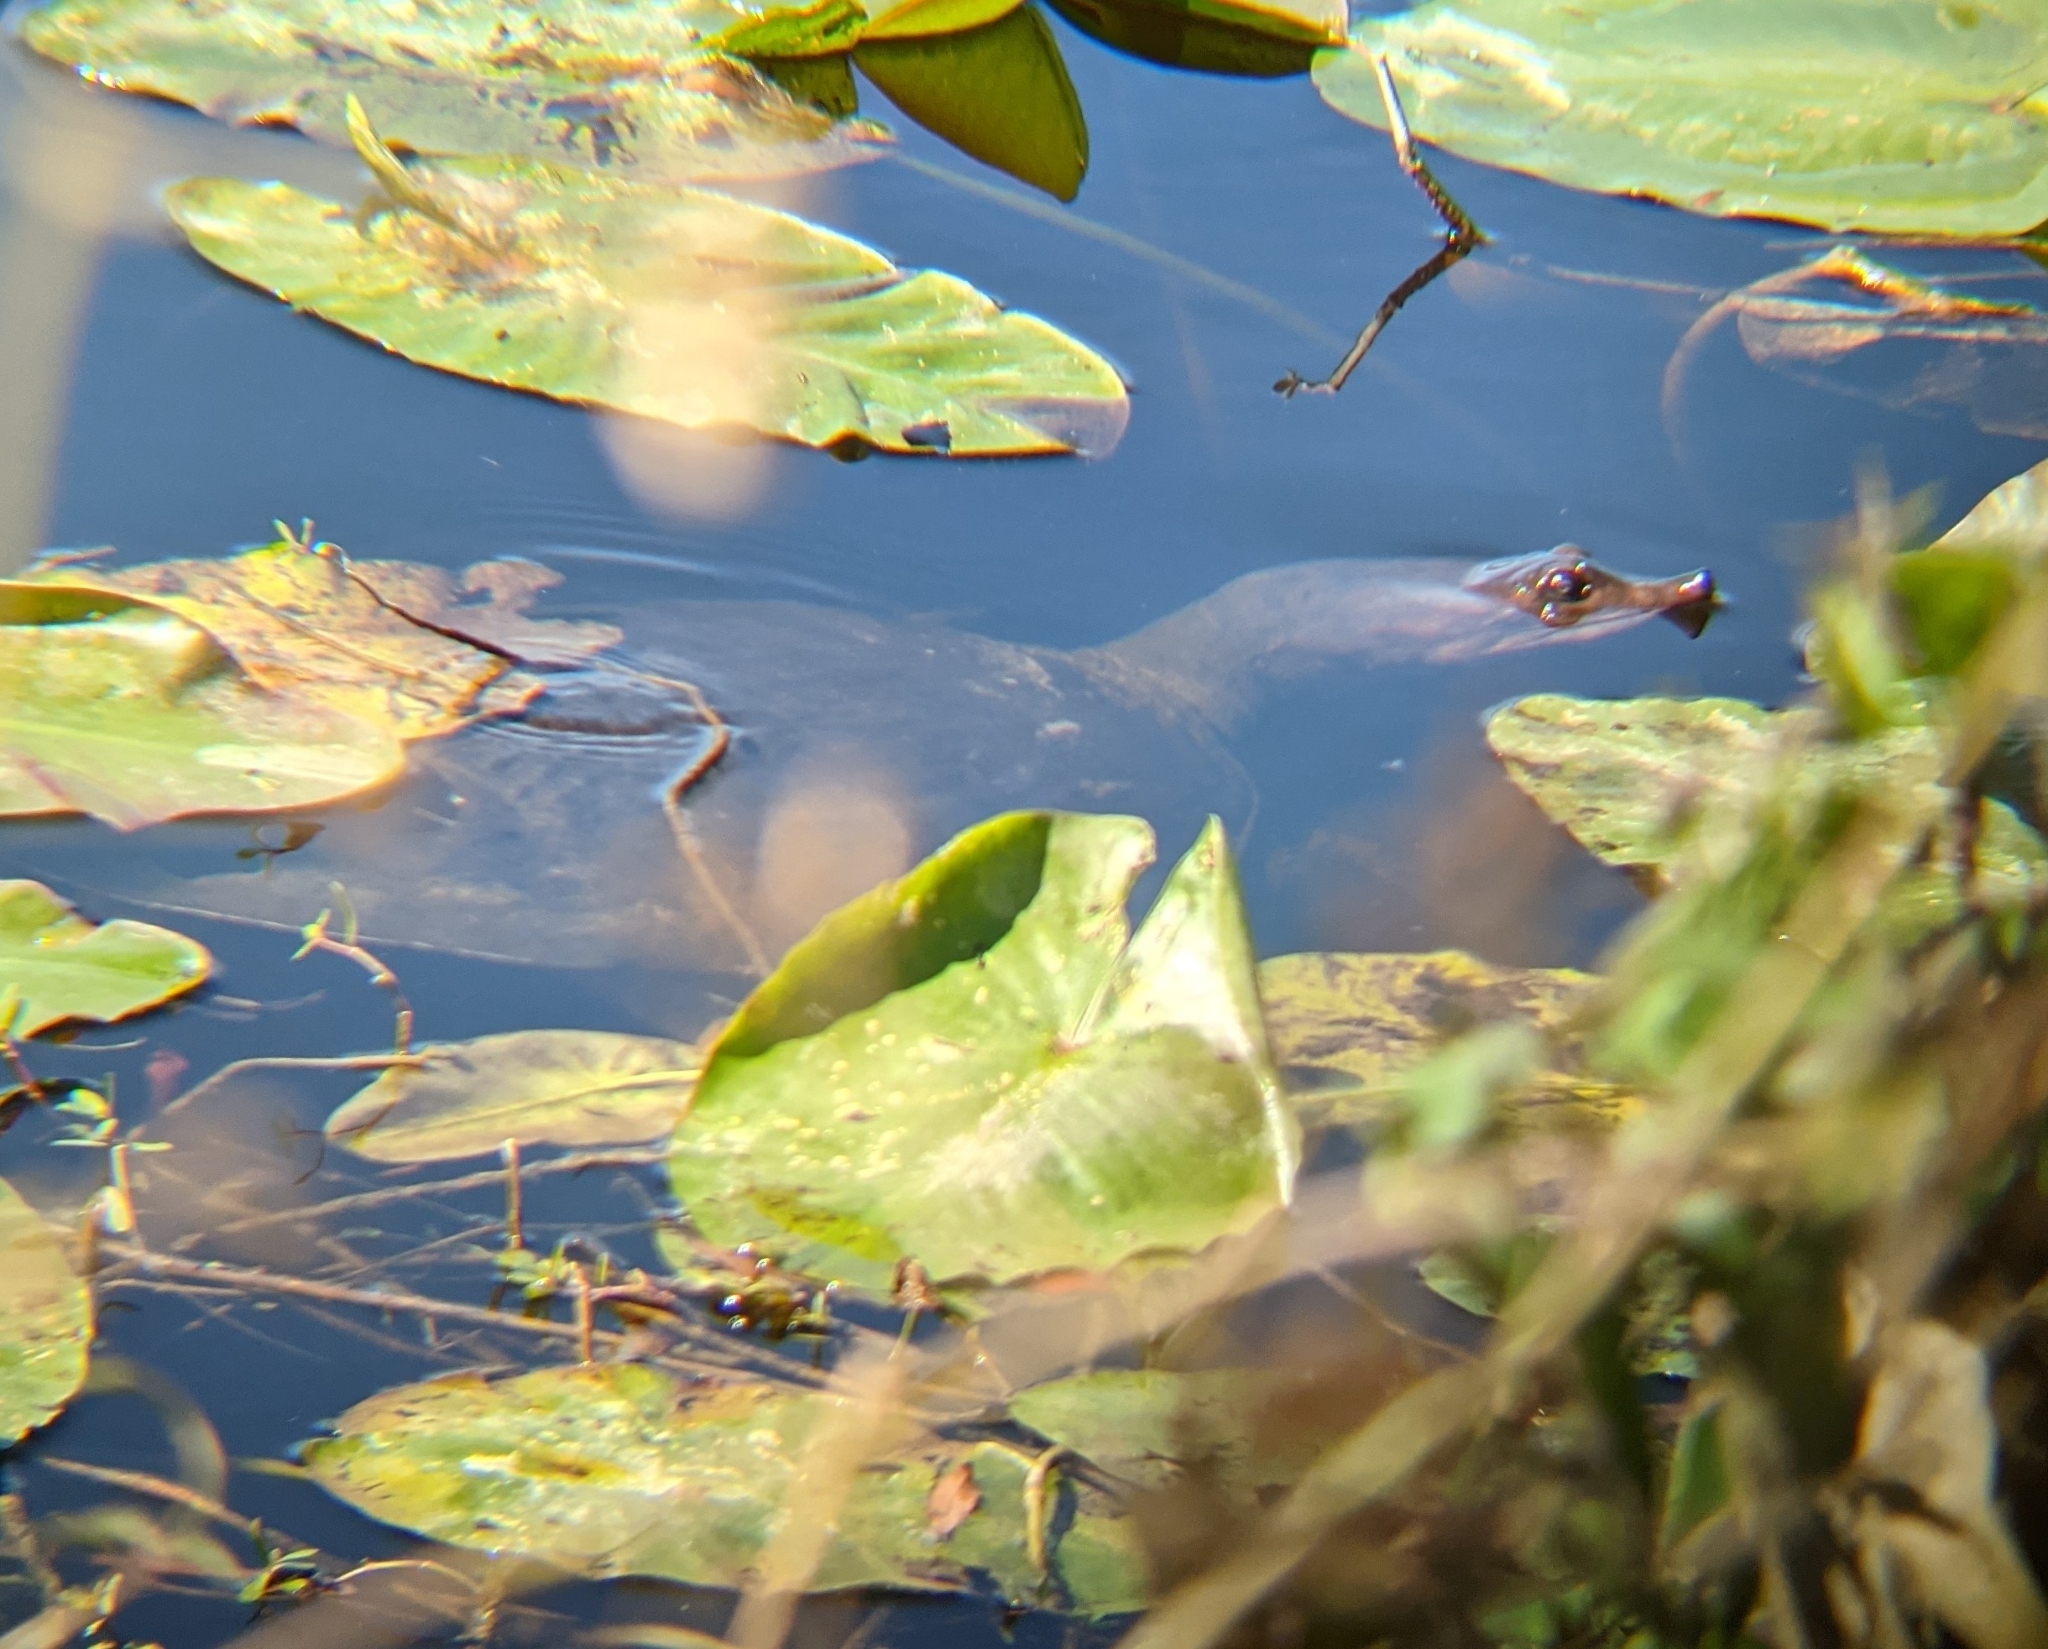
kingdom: Animalia
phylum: Chordata
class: Testudines
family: Trionychidae
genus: Apalone
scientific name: Apalone ferox
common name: Florida softshell turtle
